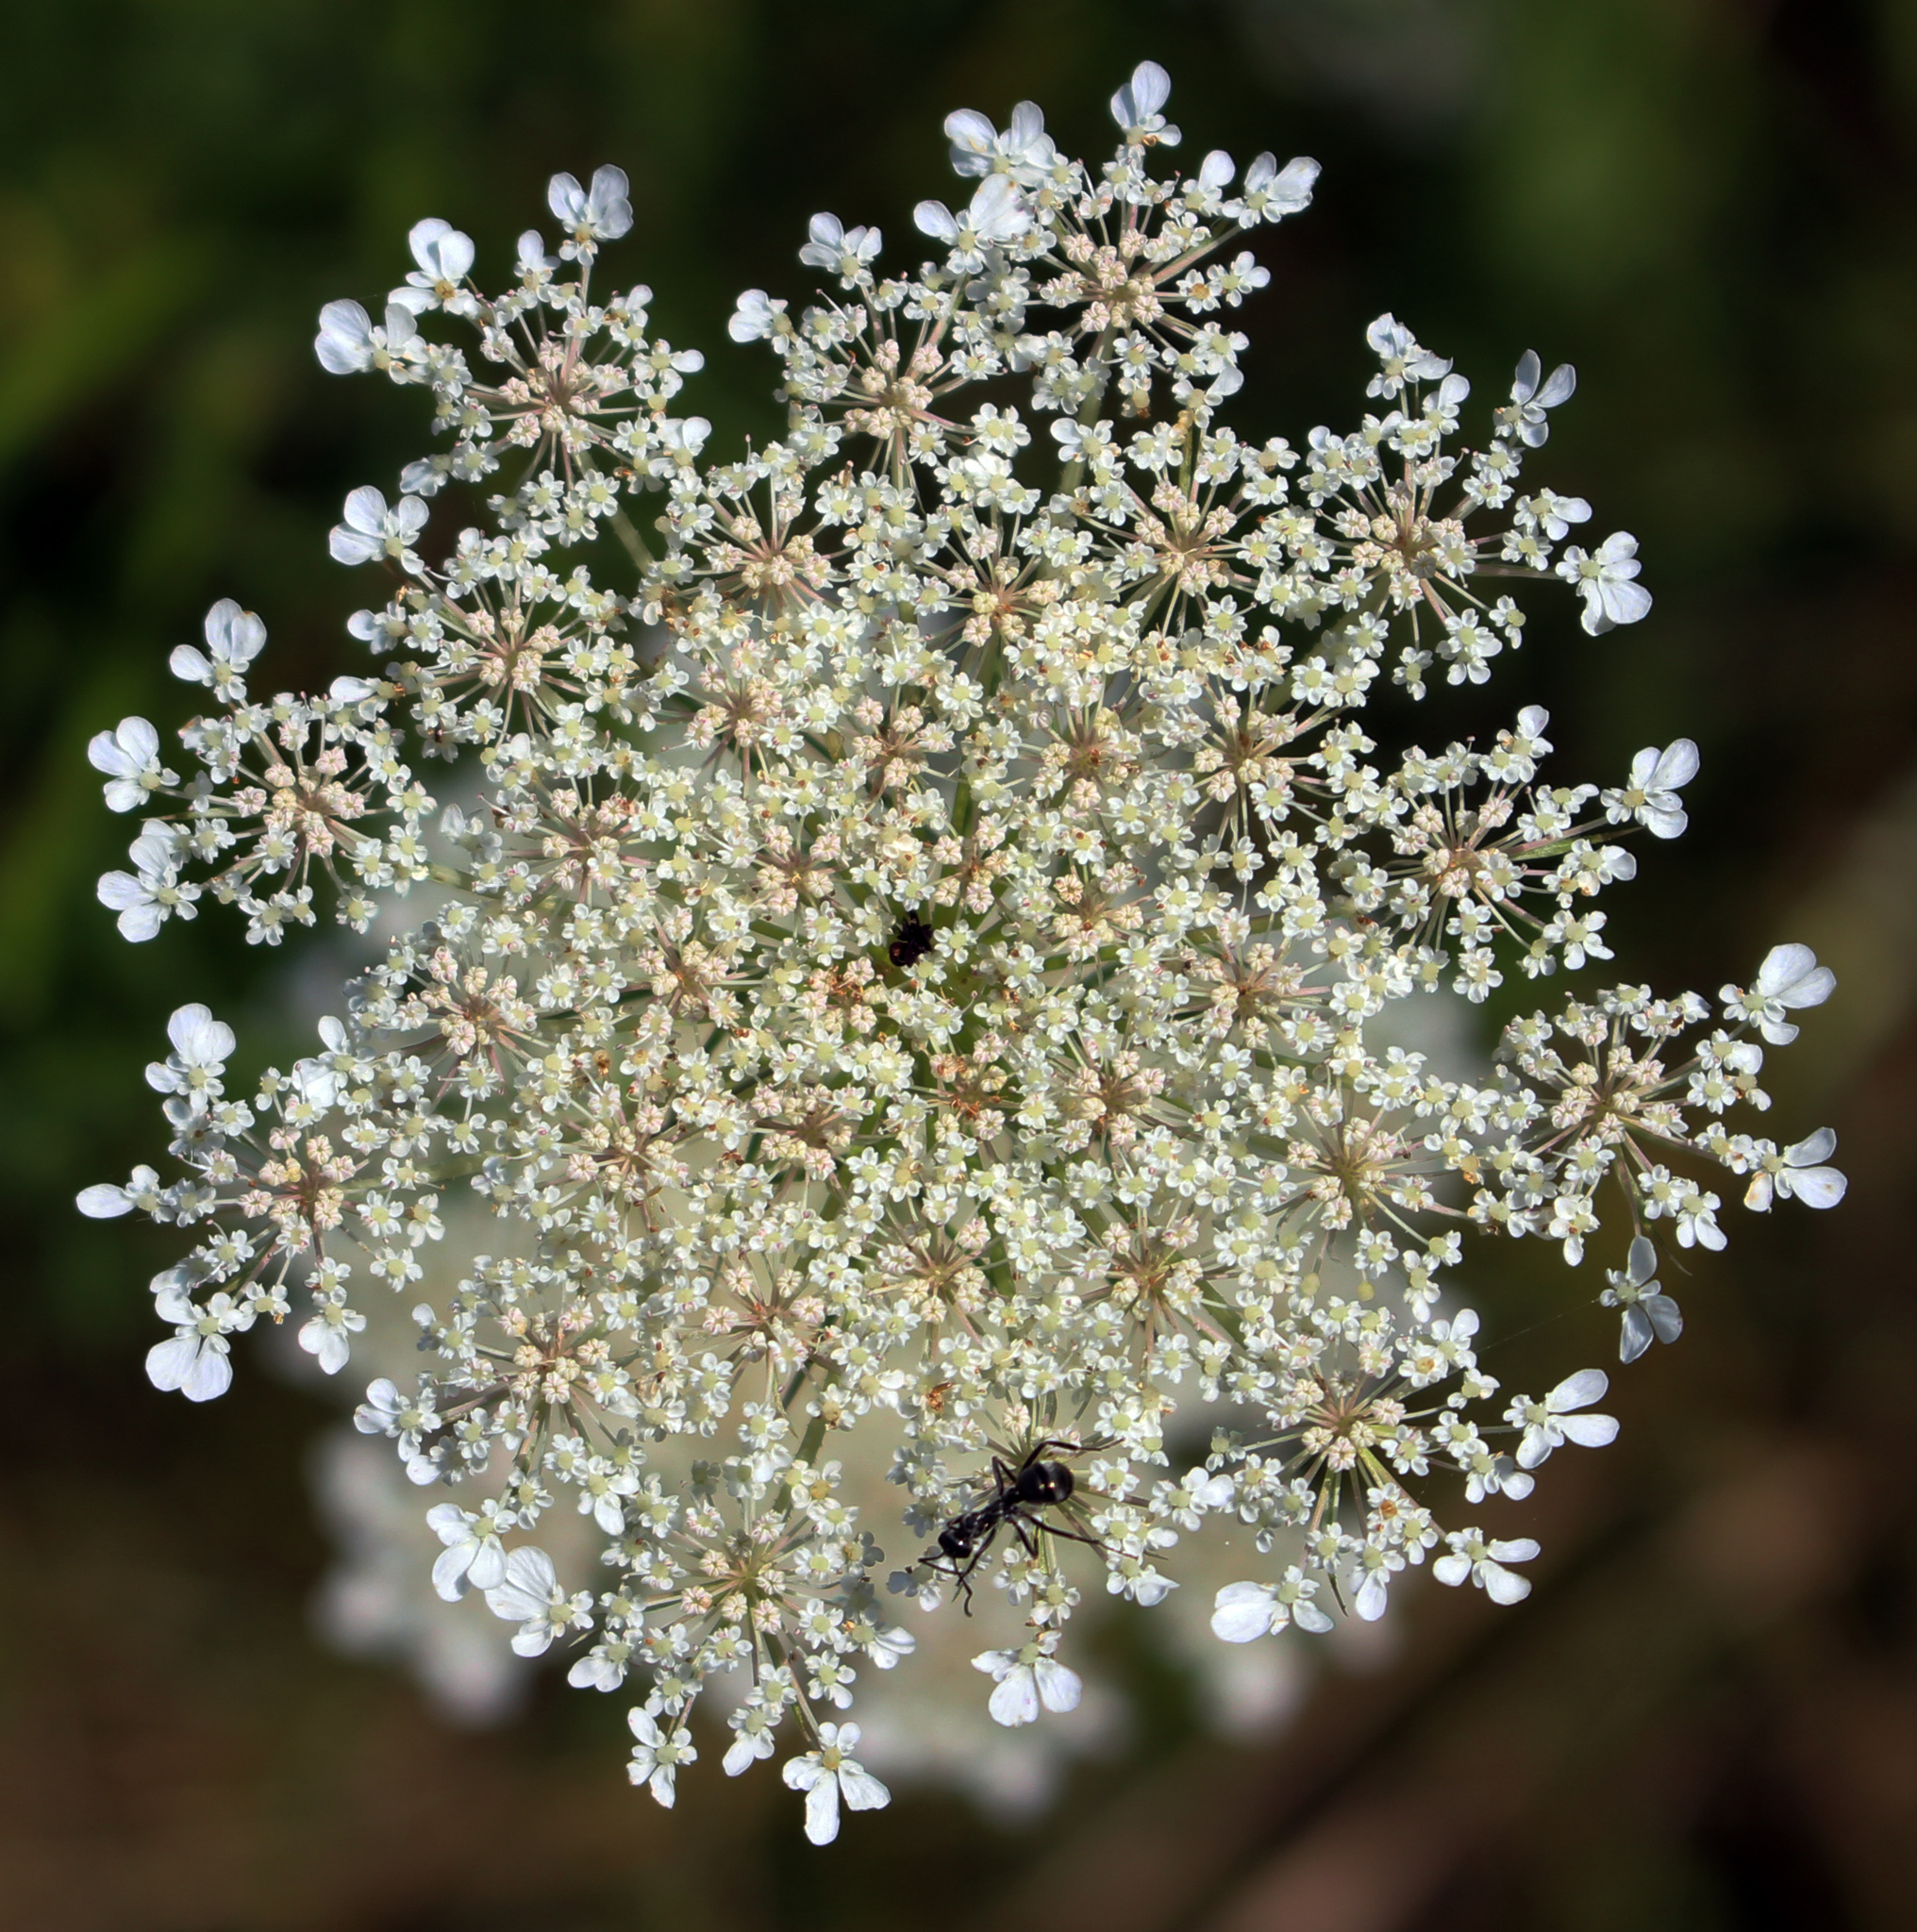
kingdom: Plantae
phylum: Tracheophyta
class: Magnoliopsida
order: Apiales
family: Apiaceae
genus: Daucus
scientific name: Daucus carota
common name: Wild carrot
